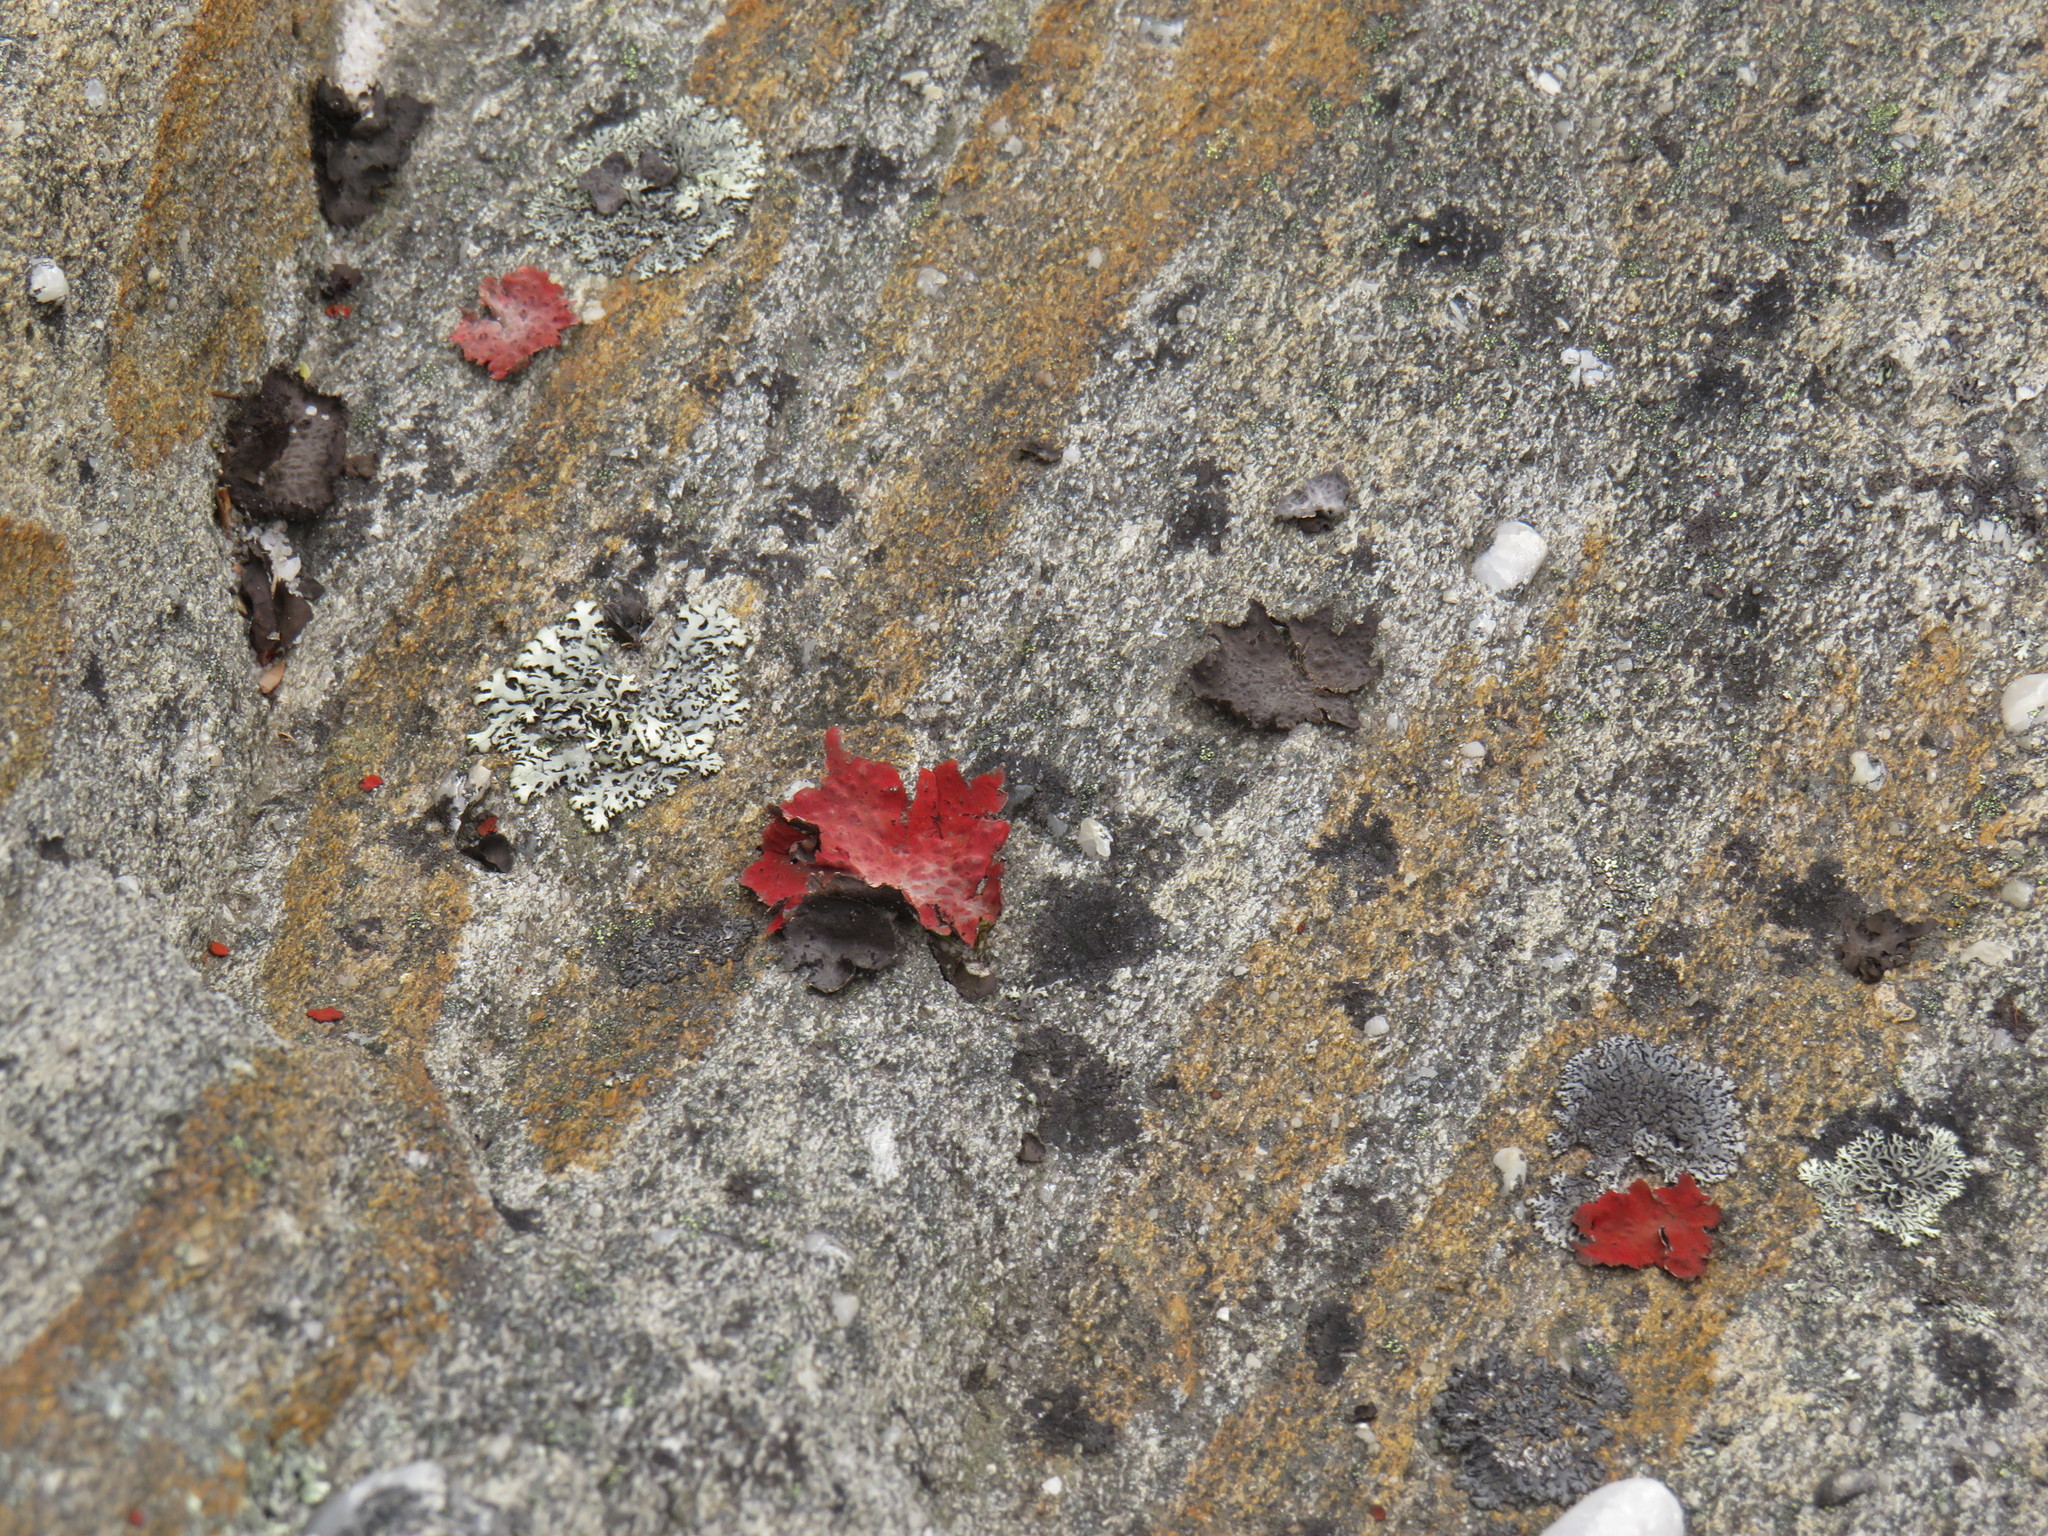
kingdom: Fungi
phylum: Ascomycota
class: Lecanoromycetes
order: Umbilicariales
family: Umbilicariaceae
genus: Lasallia
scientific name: Lasallia rubiginosa
